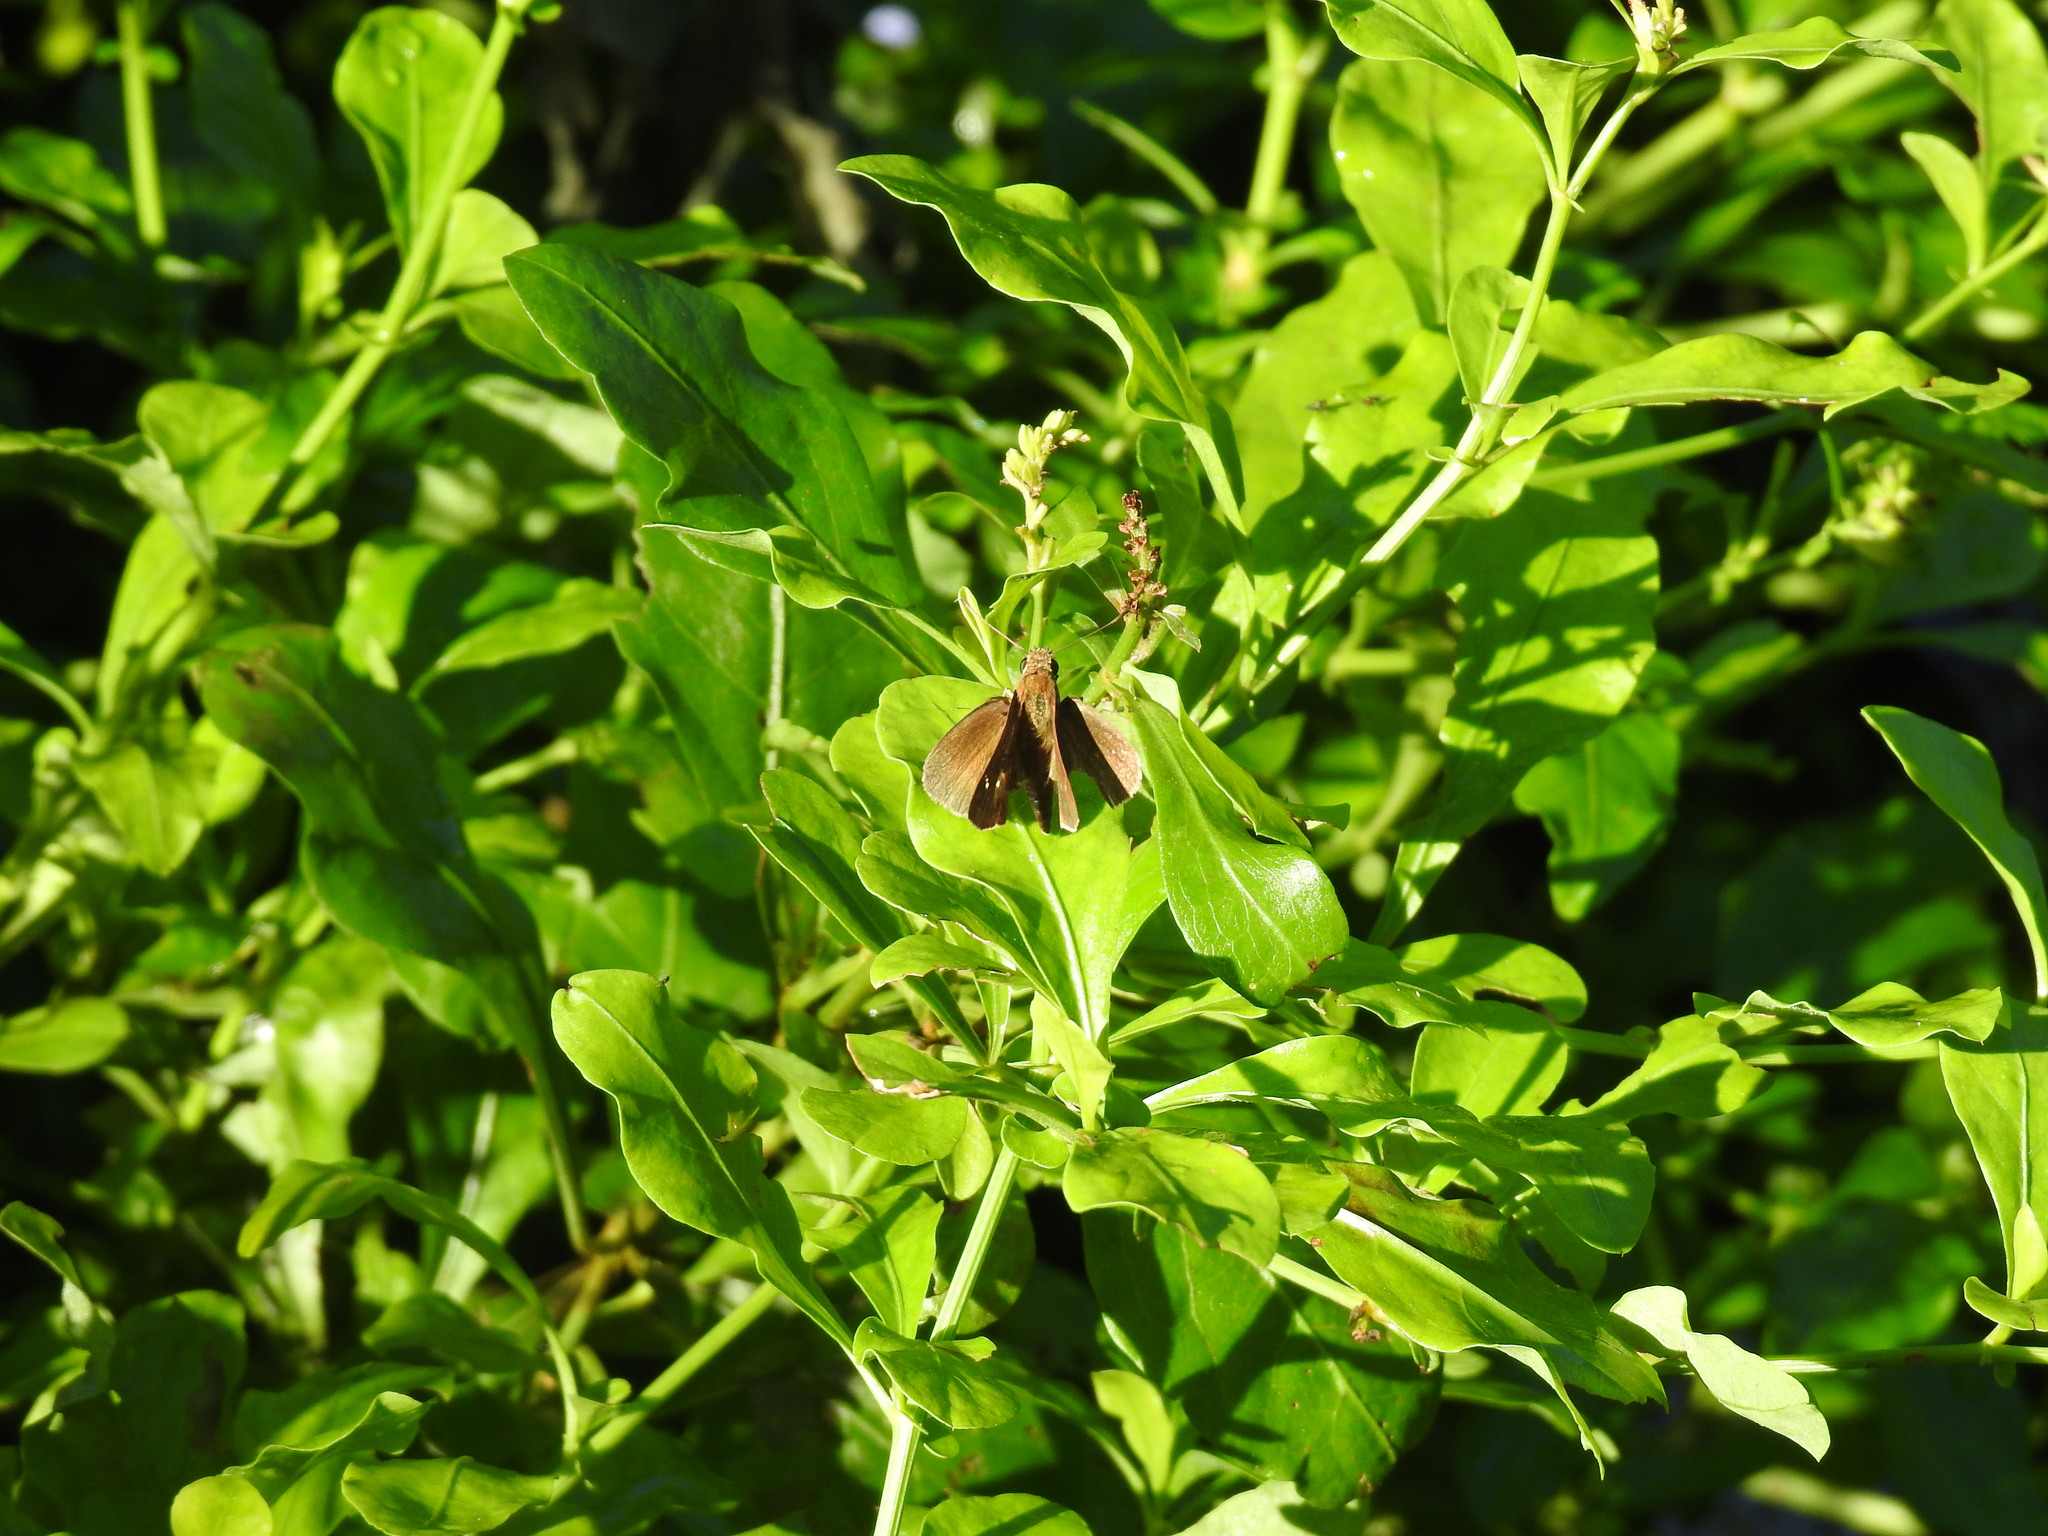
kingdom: Animalia
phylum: Arthropoda
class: Insecta
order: Lepidoptera
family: Hesperiidae
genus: Cymaenes
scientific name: Cymaenes tripunctus
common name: Dingy dotted skipper
